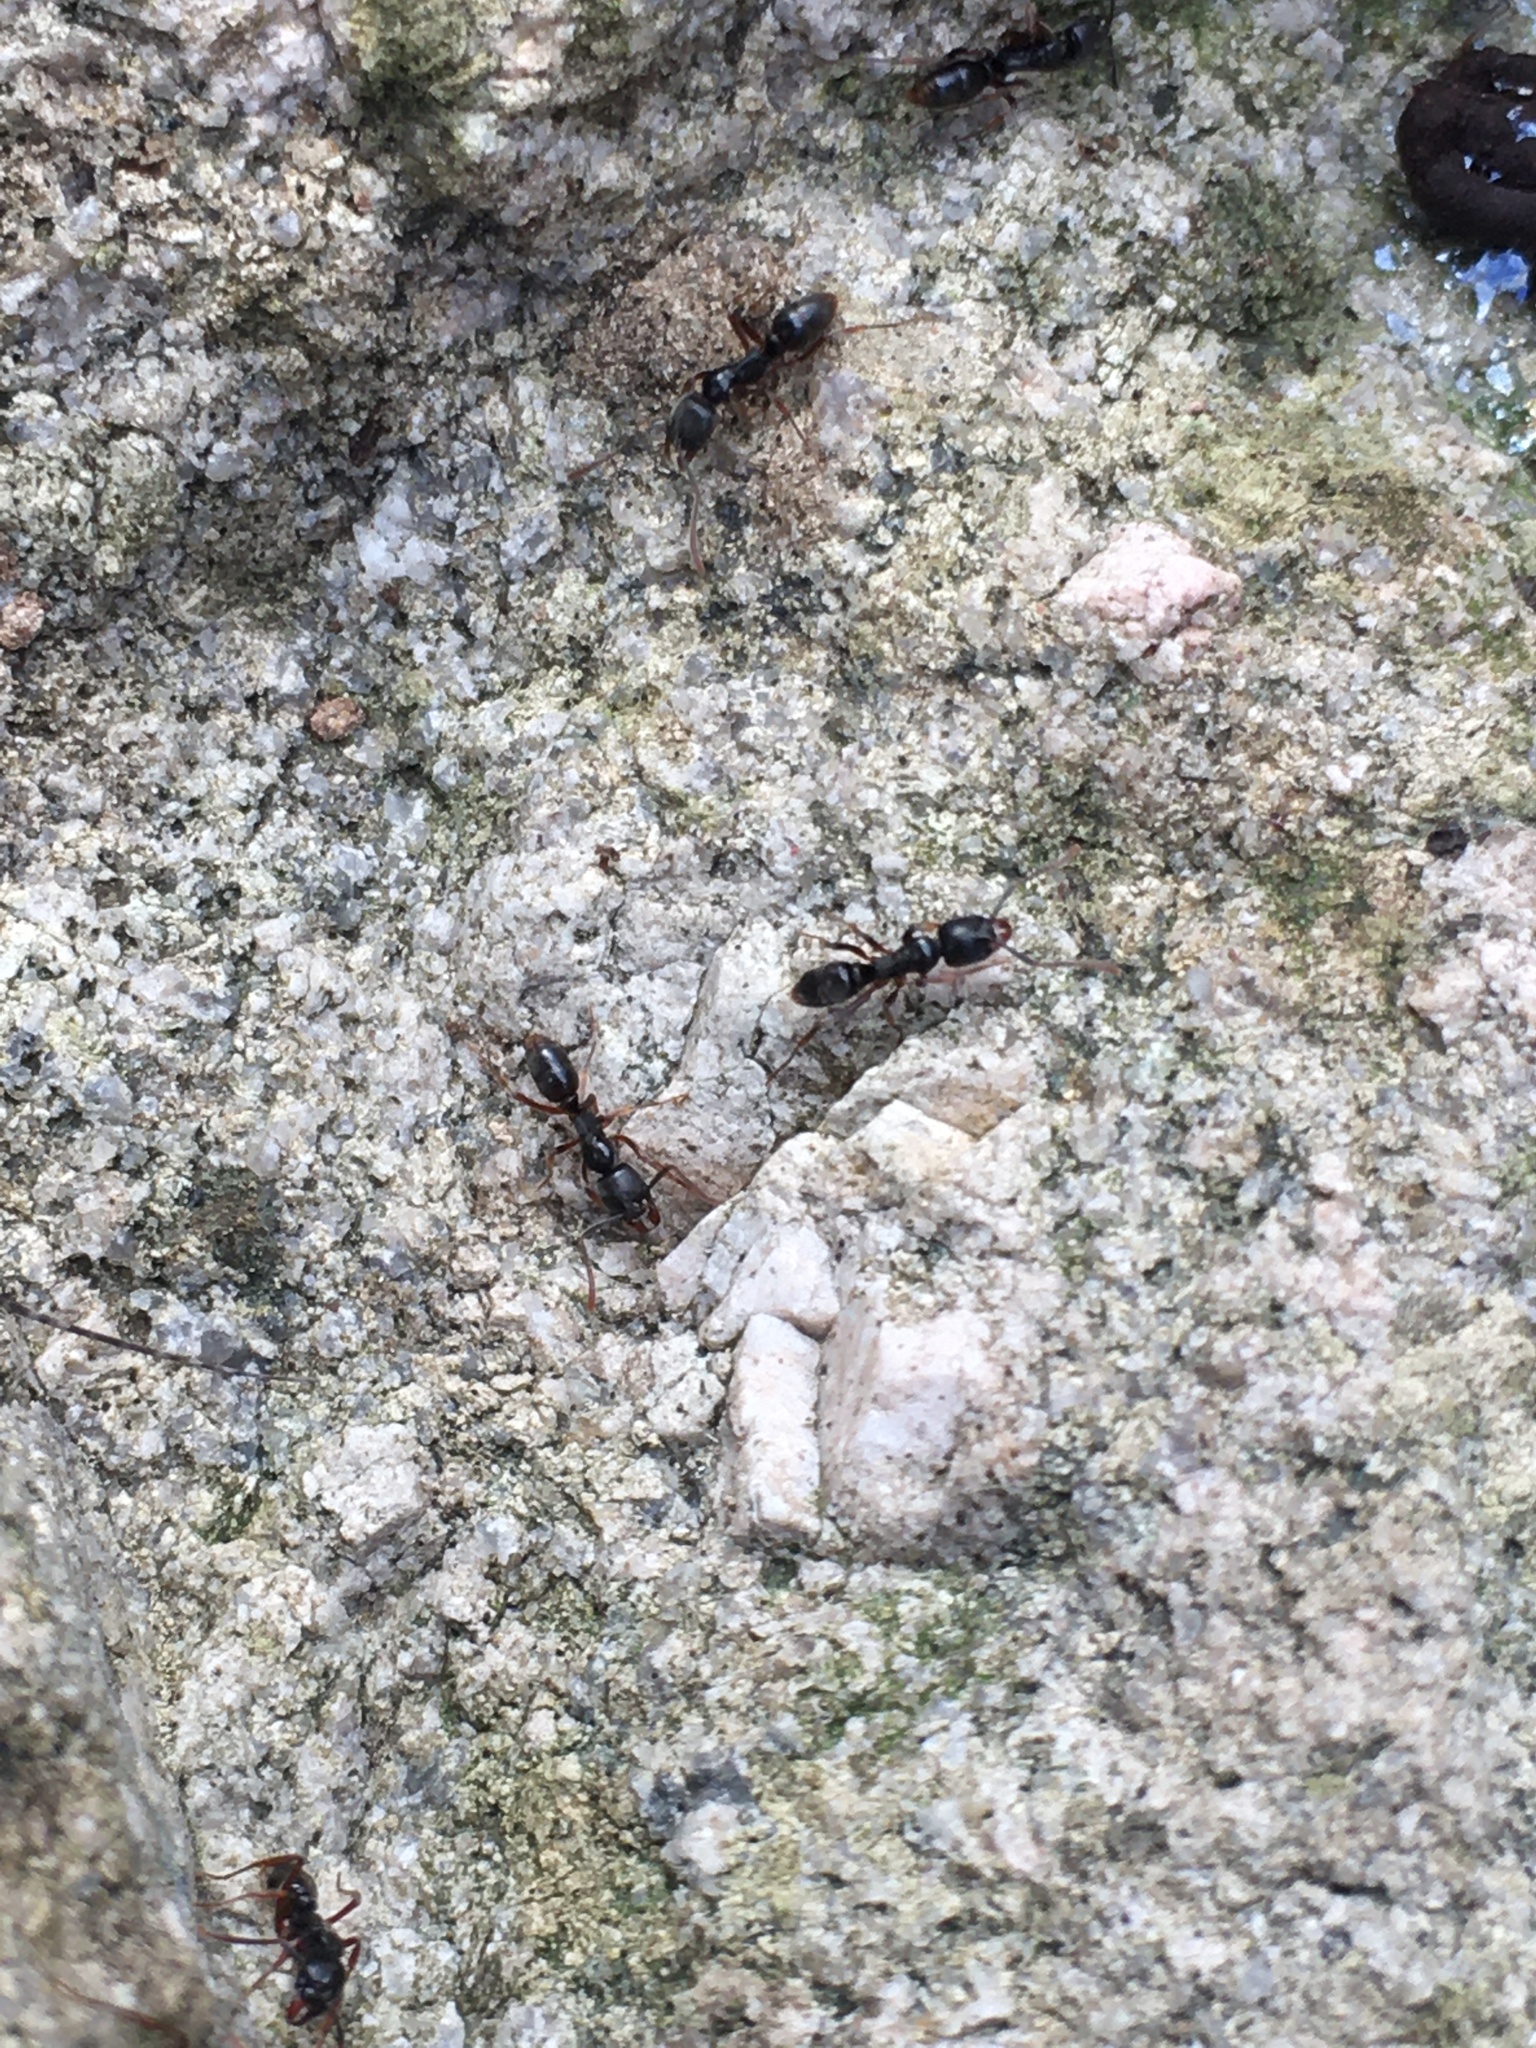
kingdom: Animalia
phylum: Arthropoda
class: Insecta
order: Hymenoptera
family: Formicidae
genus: Pachycondyla
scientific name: Pachycondyla chinensis
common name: Asian needle ant
